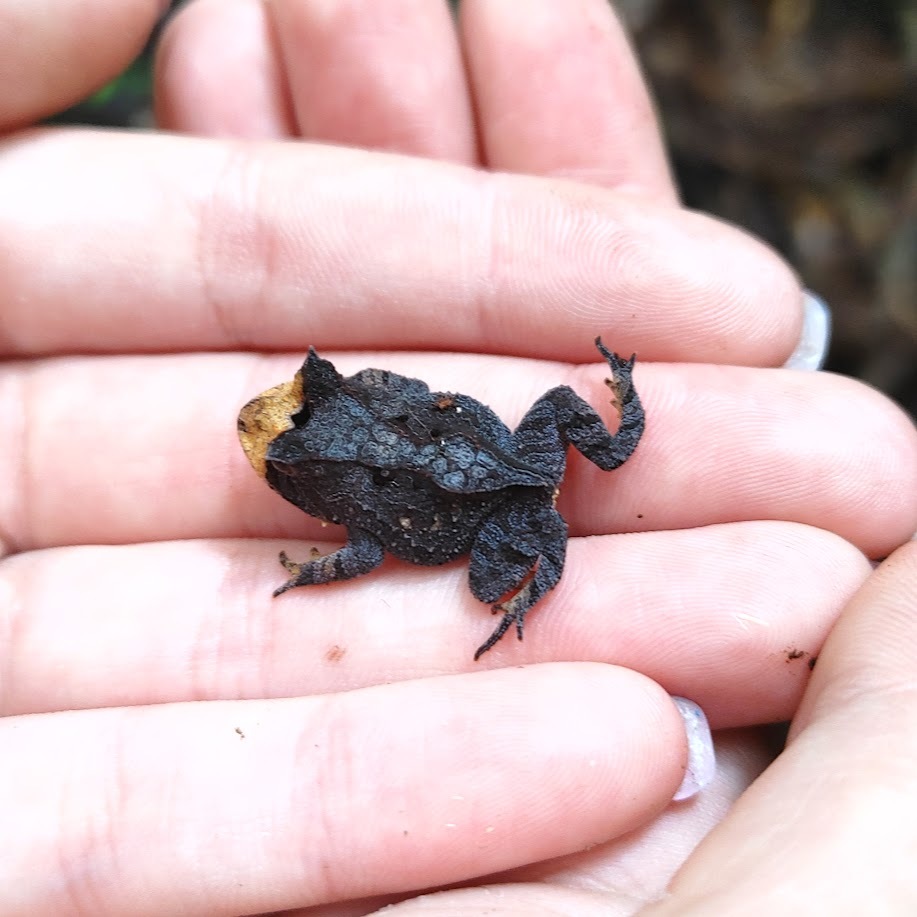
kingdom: Animalia
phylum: Chordata
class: Amphibia
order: Anura
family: Odontophrynidae
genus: Proceratophrys
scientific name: Proceratophrys boiei
